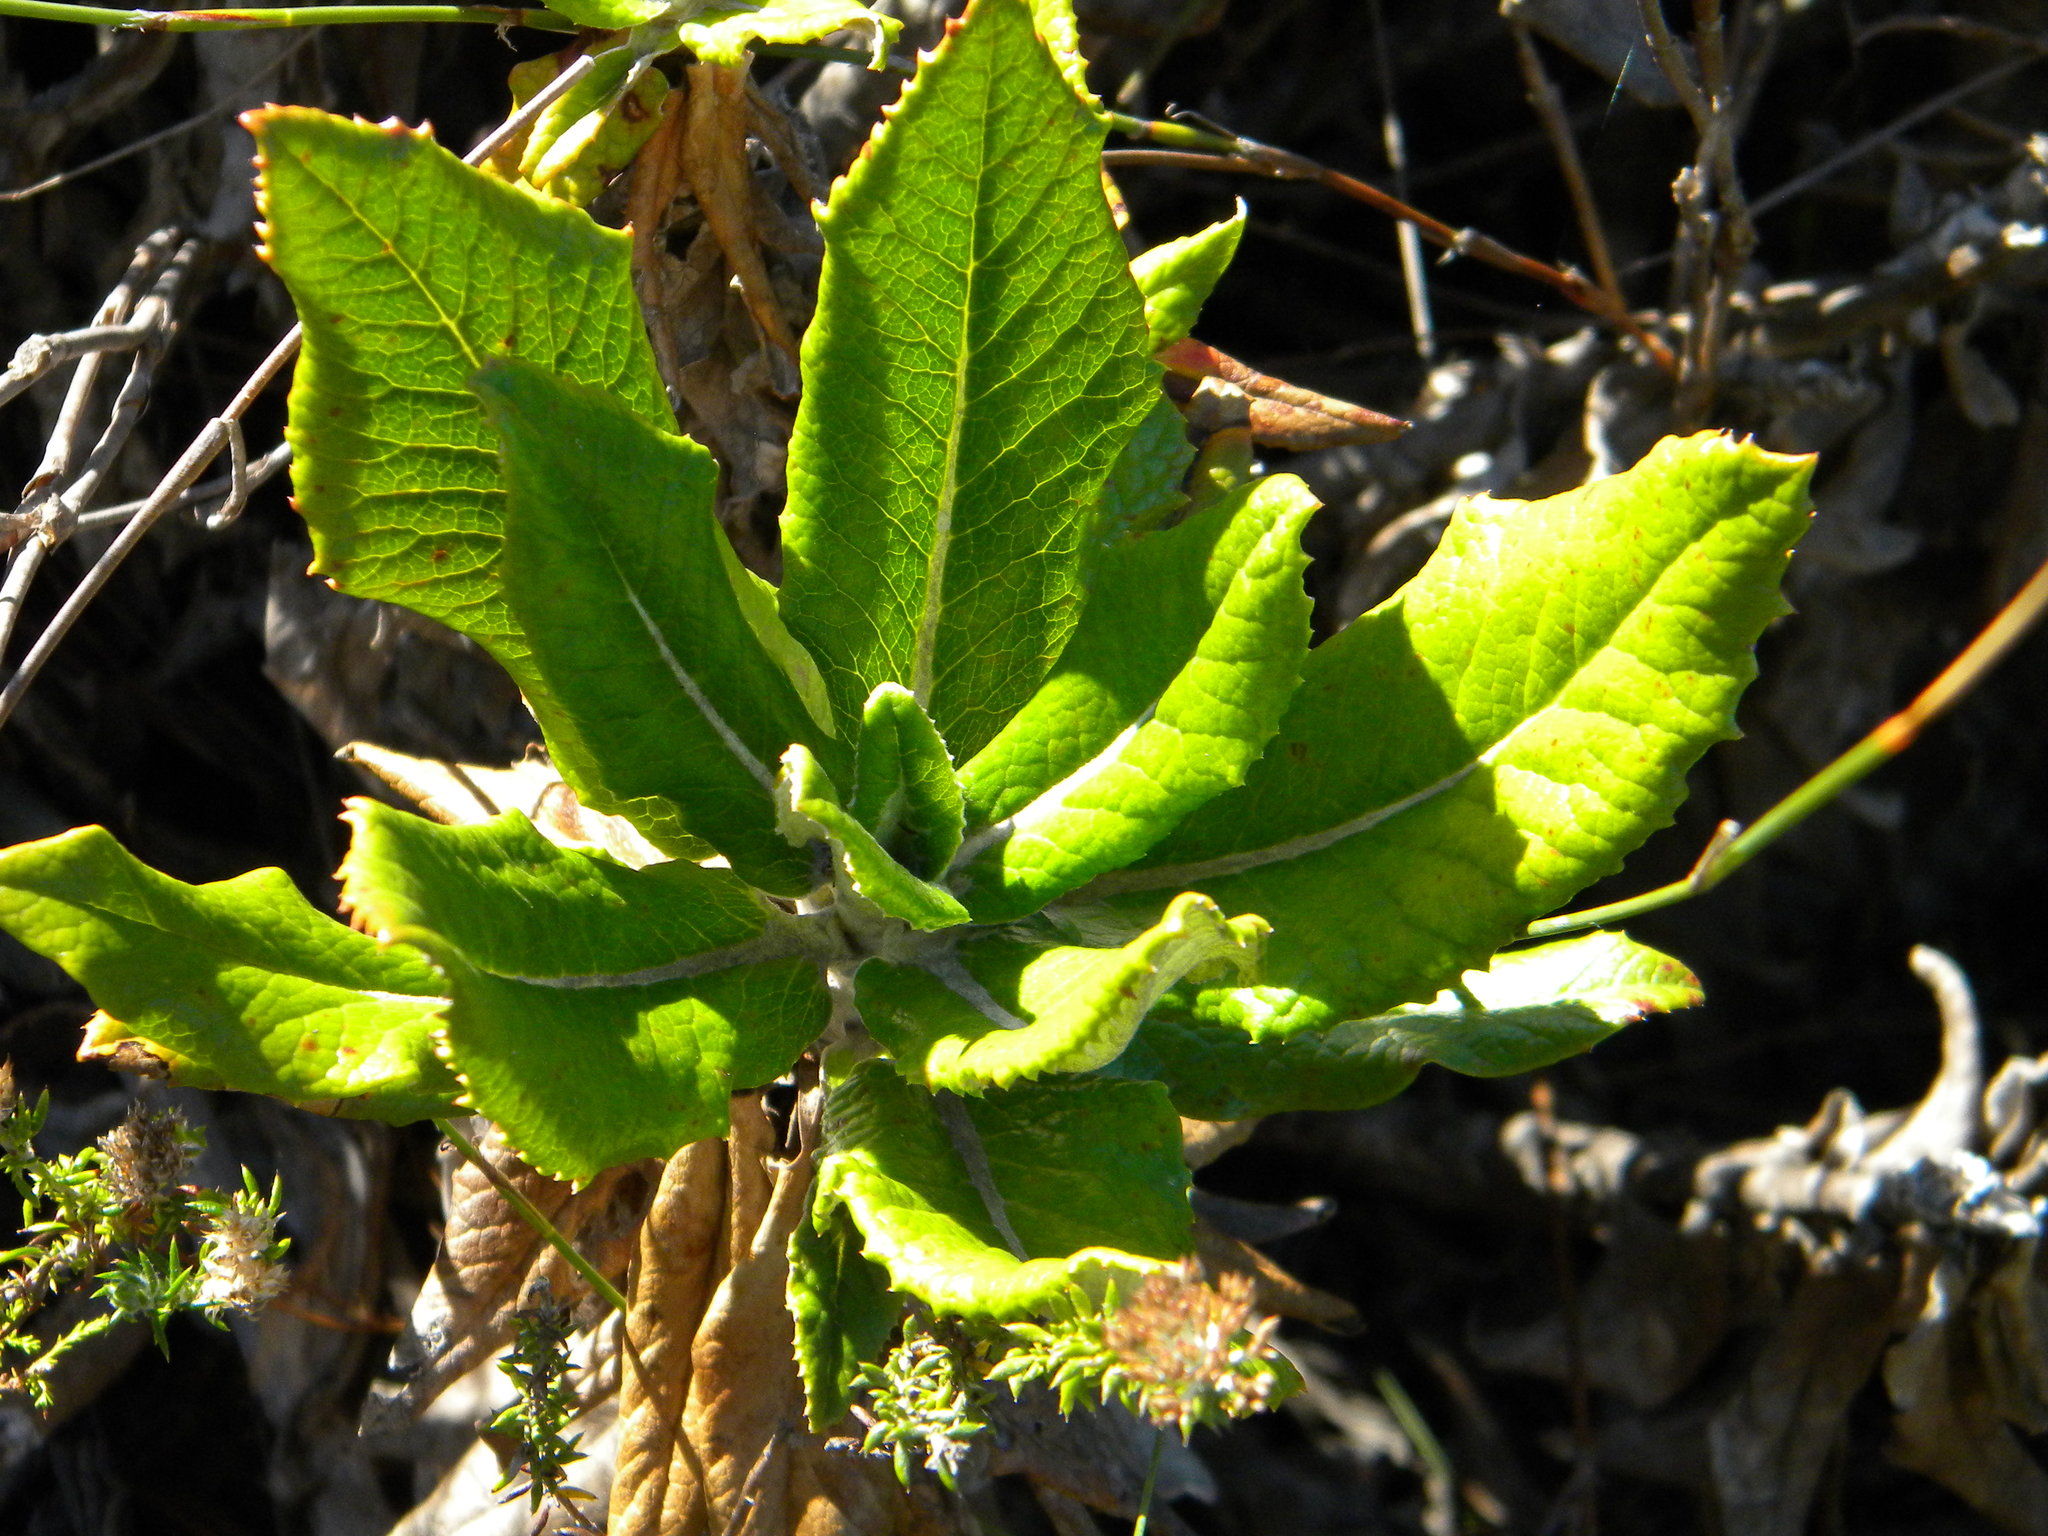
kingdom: Plantae
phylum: Tracheophyta
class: Magnoliopsida
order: Apiales
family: Apiaceae
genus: Hermas
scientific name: Hermas villosa
